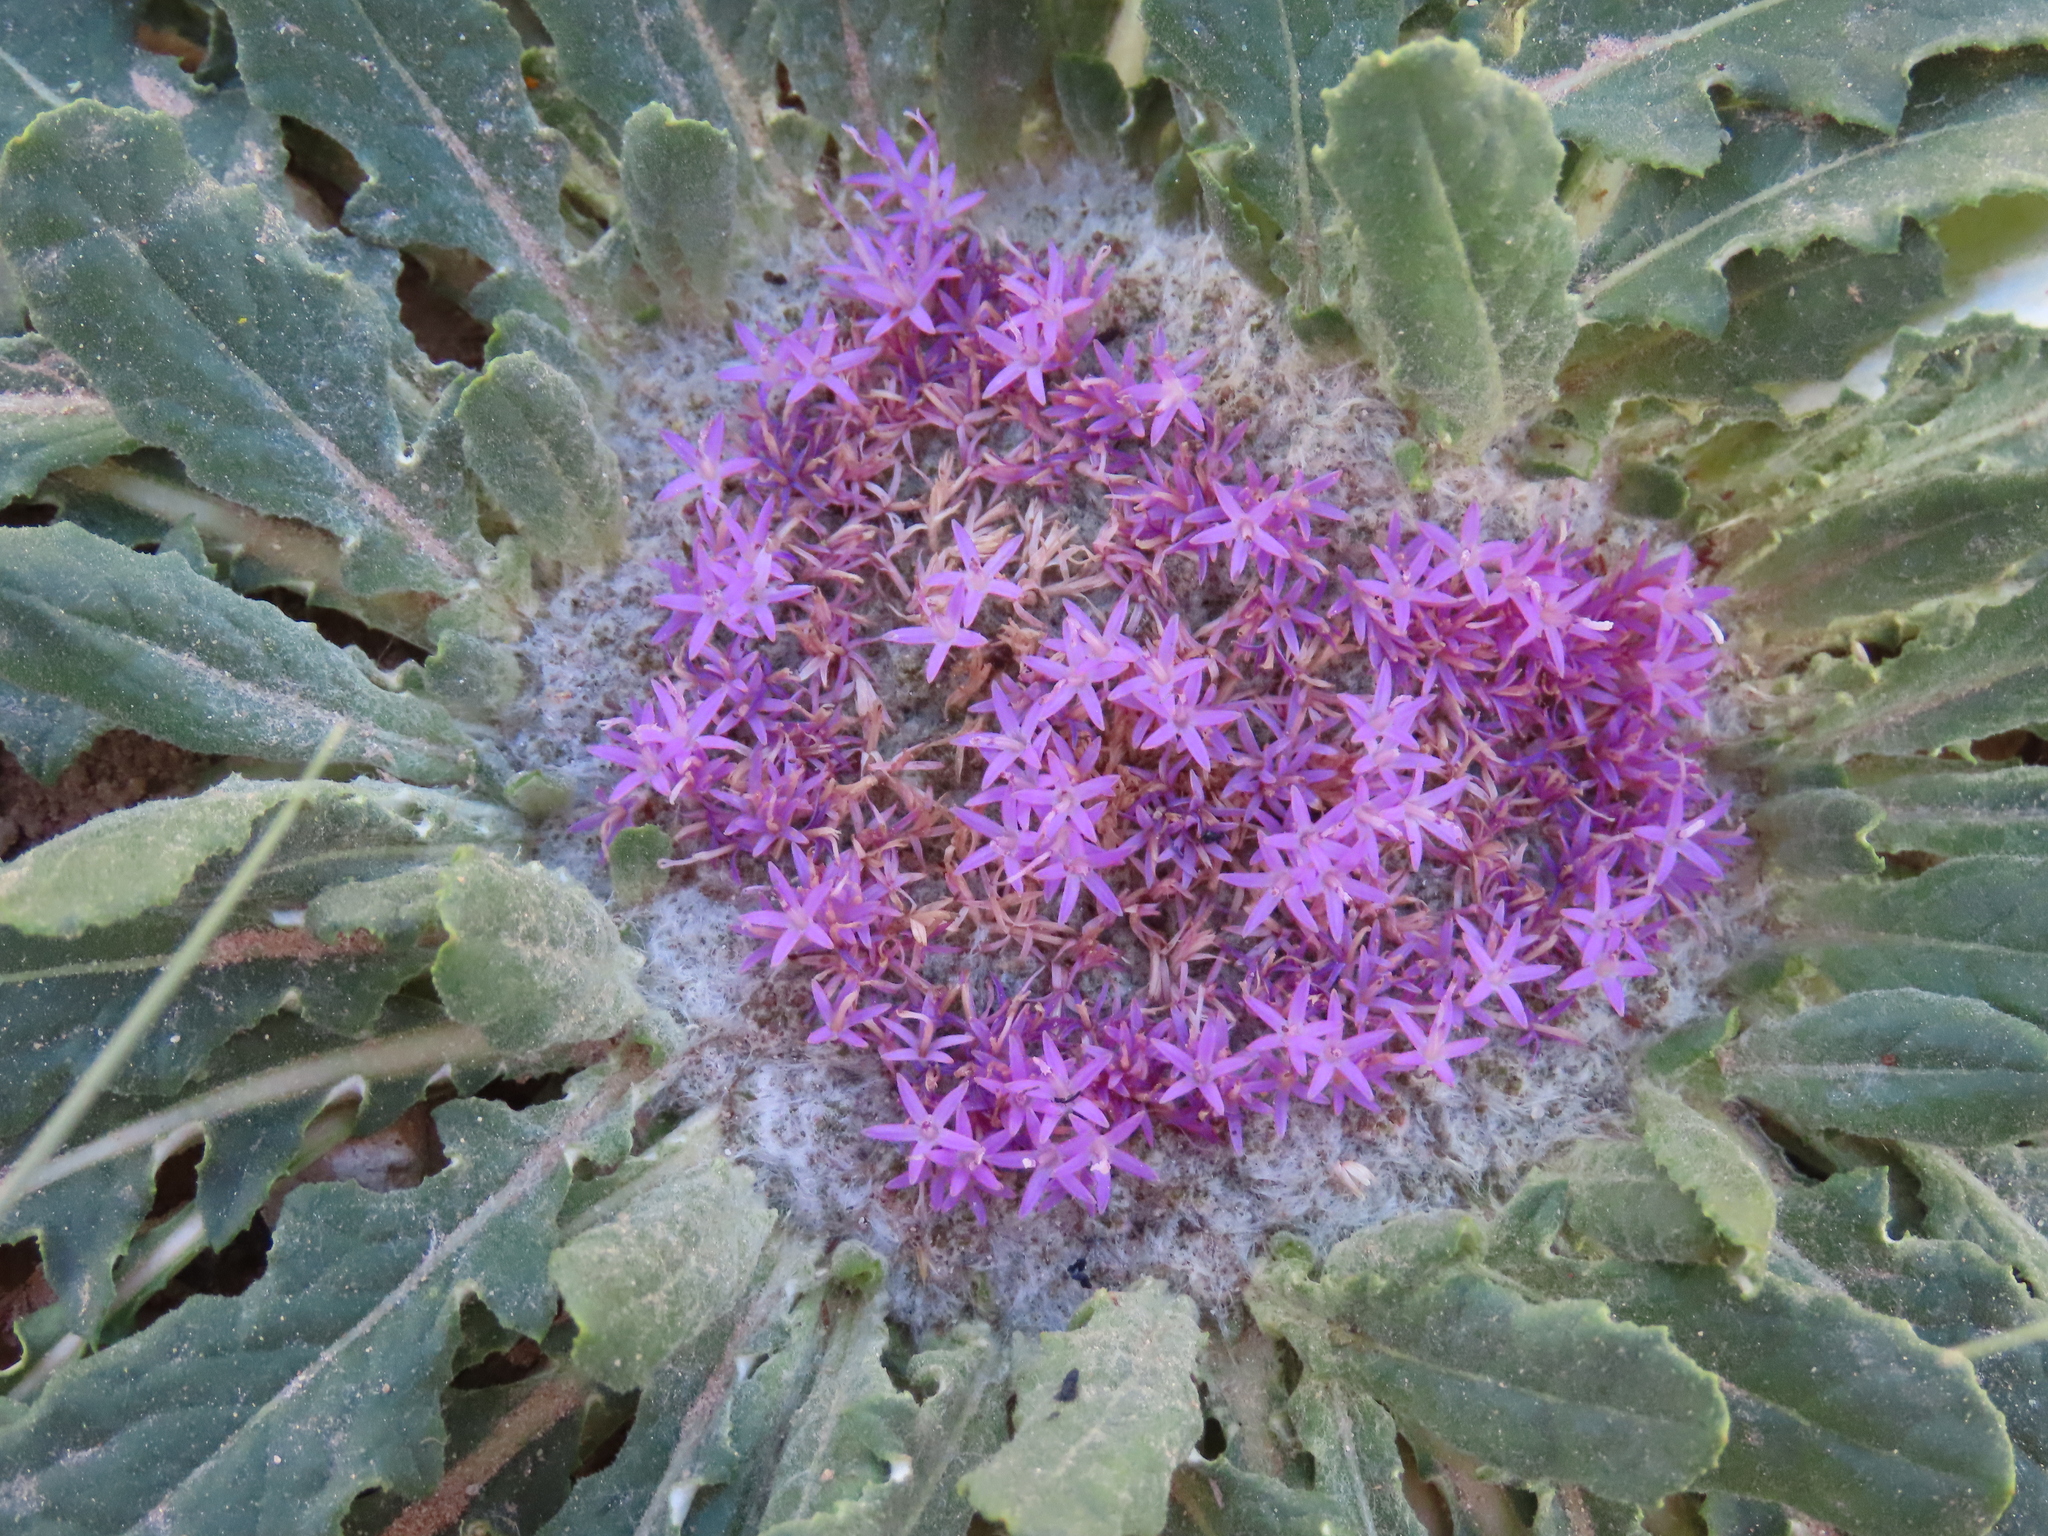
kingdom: Plantae
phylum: Tracheophyta
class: Magnoliopsida
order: Asterales
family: Asteraceae
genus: Platycarphella
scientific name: Platycarphella carlinoides
